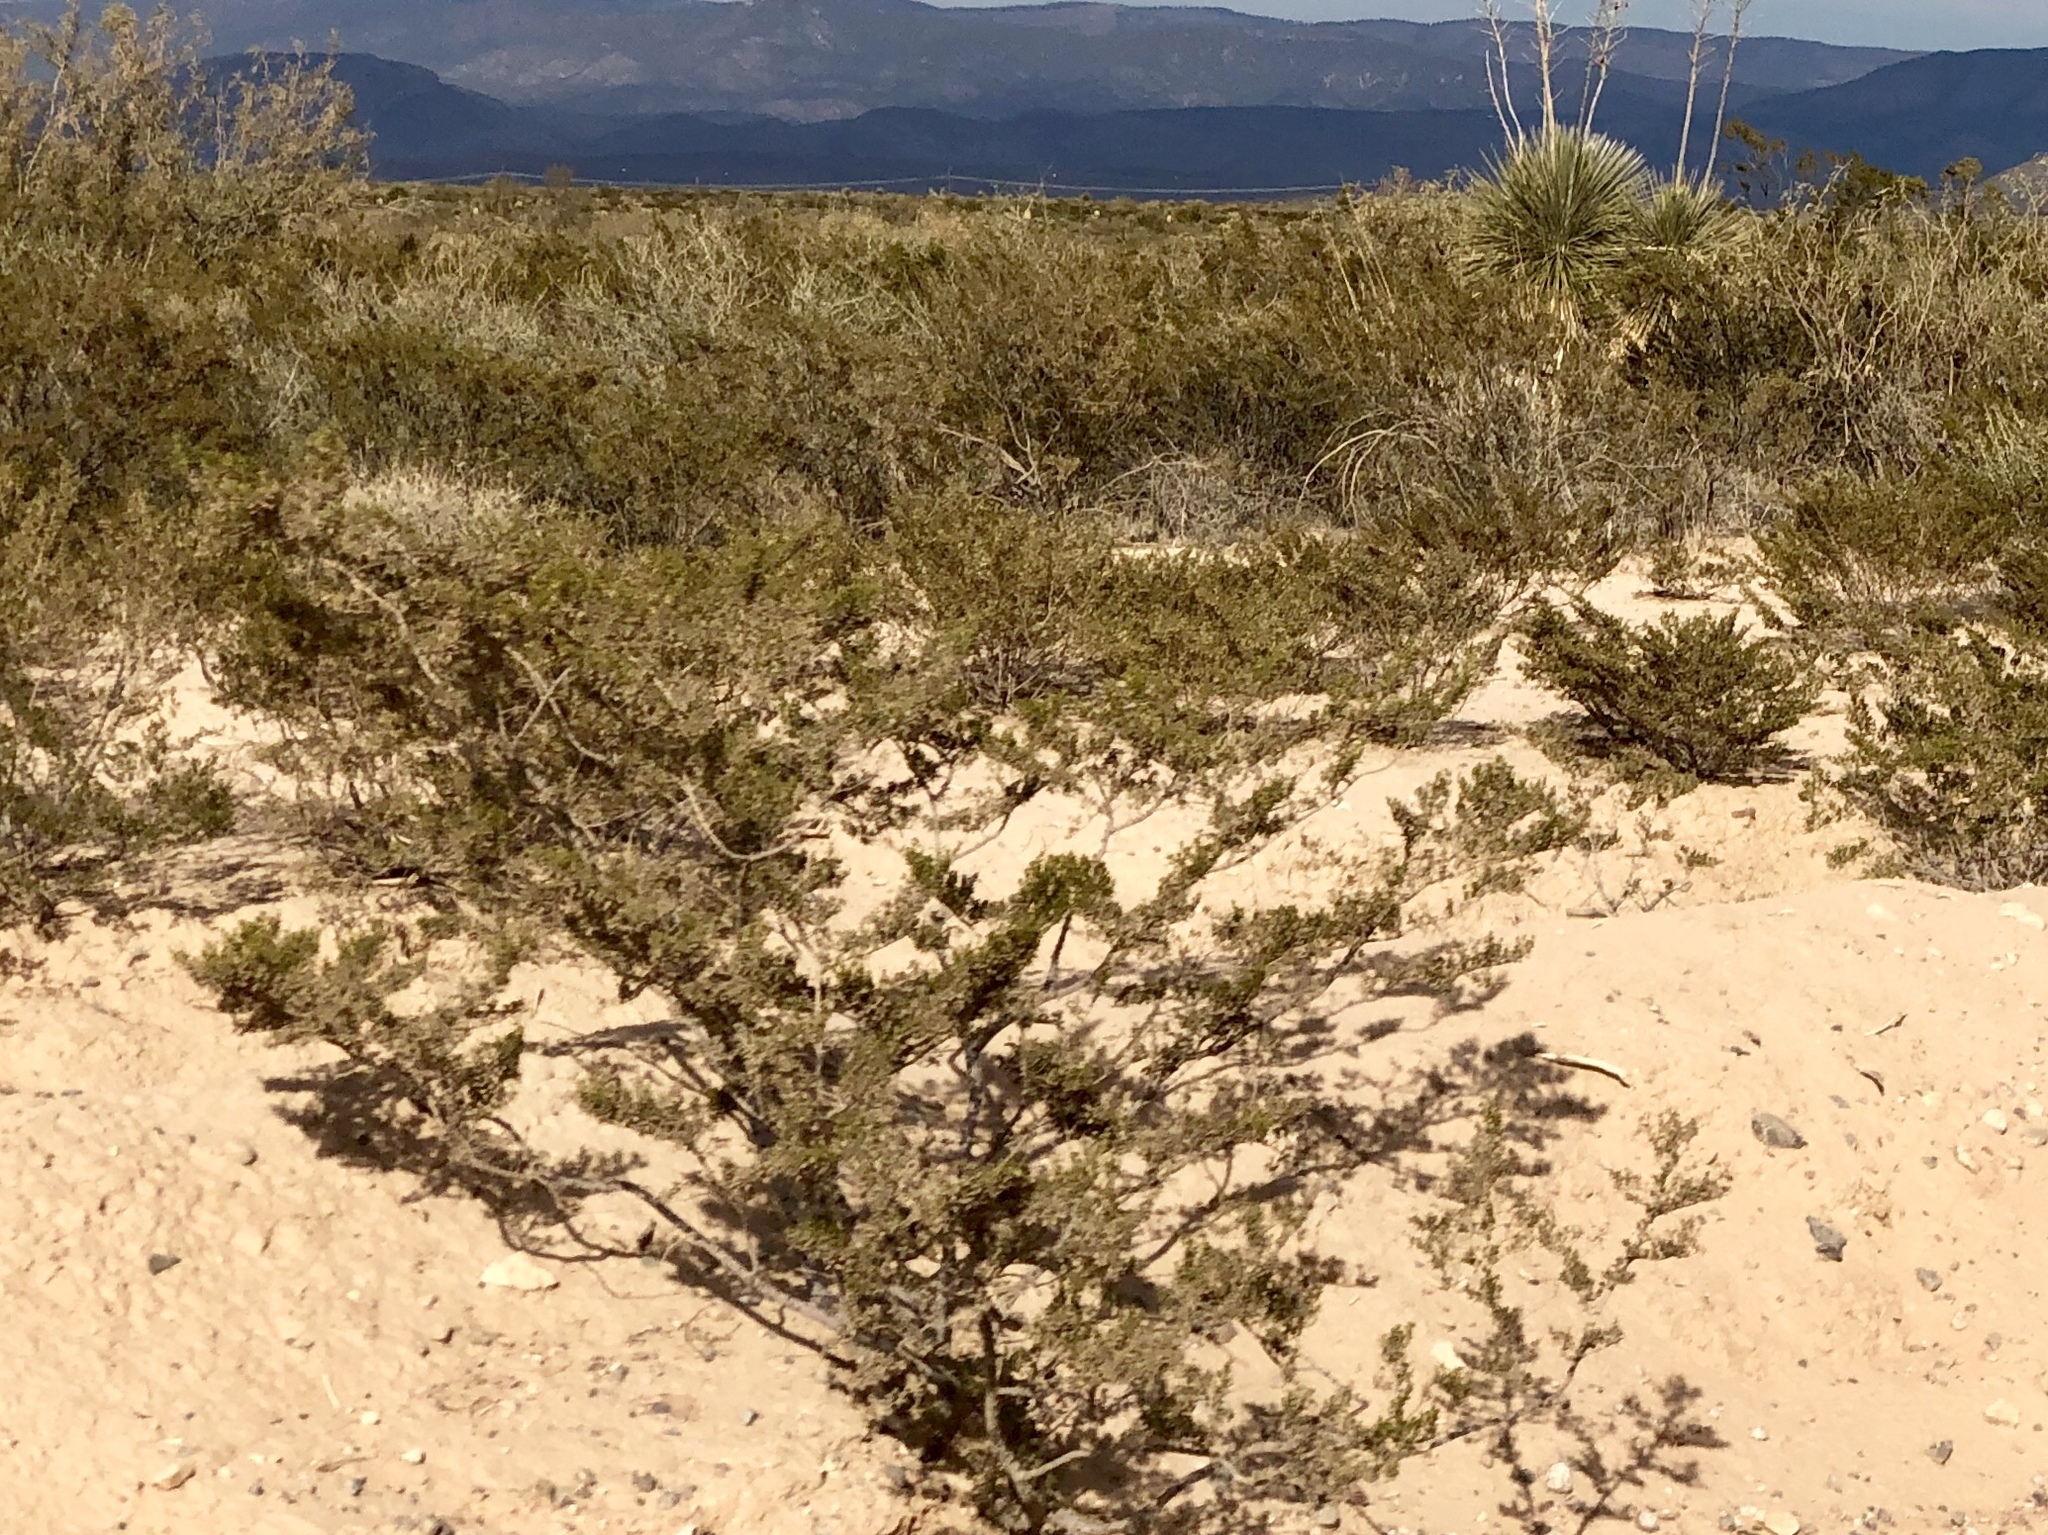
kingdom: Plantae
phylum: Tracheophyta
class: Magnoliopsida
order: Zygophyllales
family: Zygophyllaceae
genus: Larrea
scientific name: Larrea tridentata
